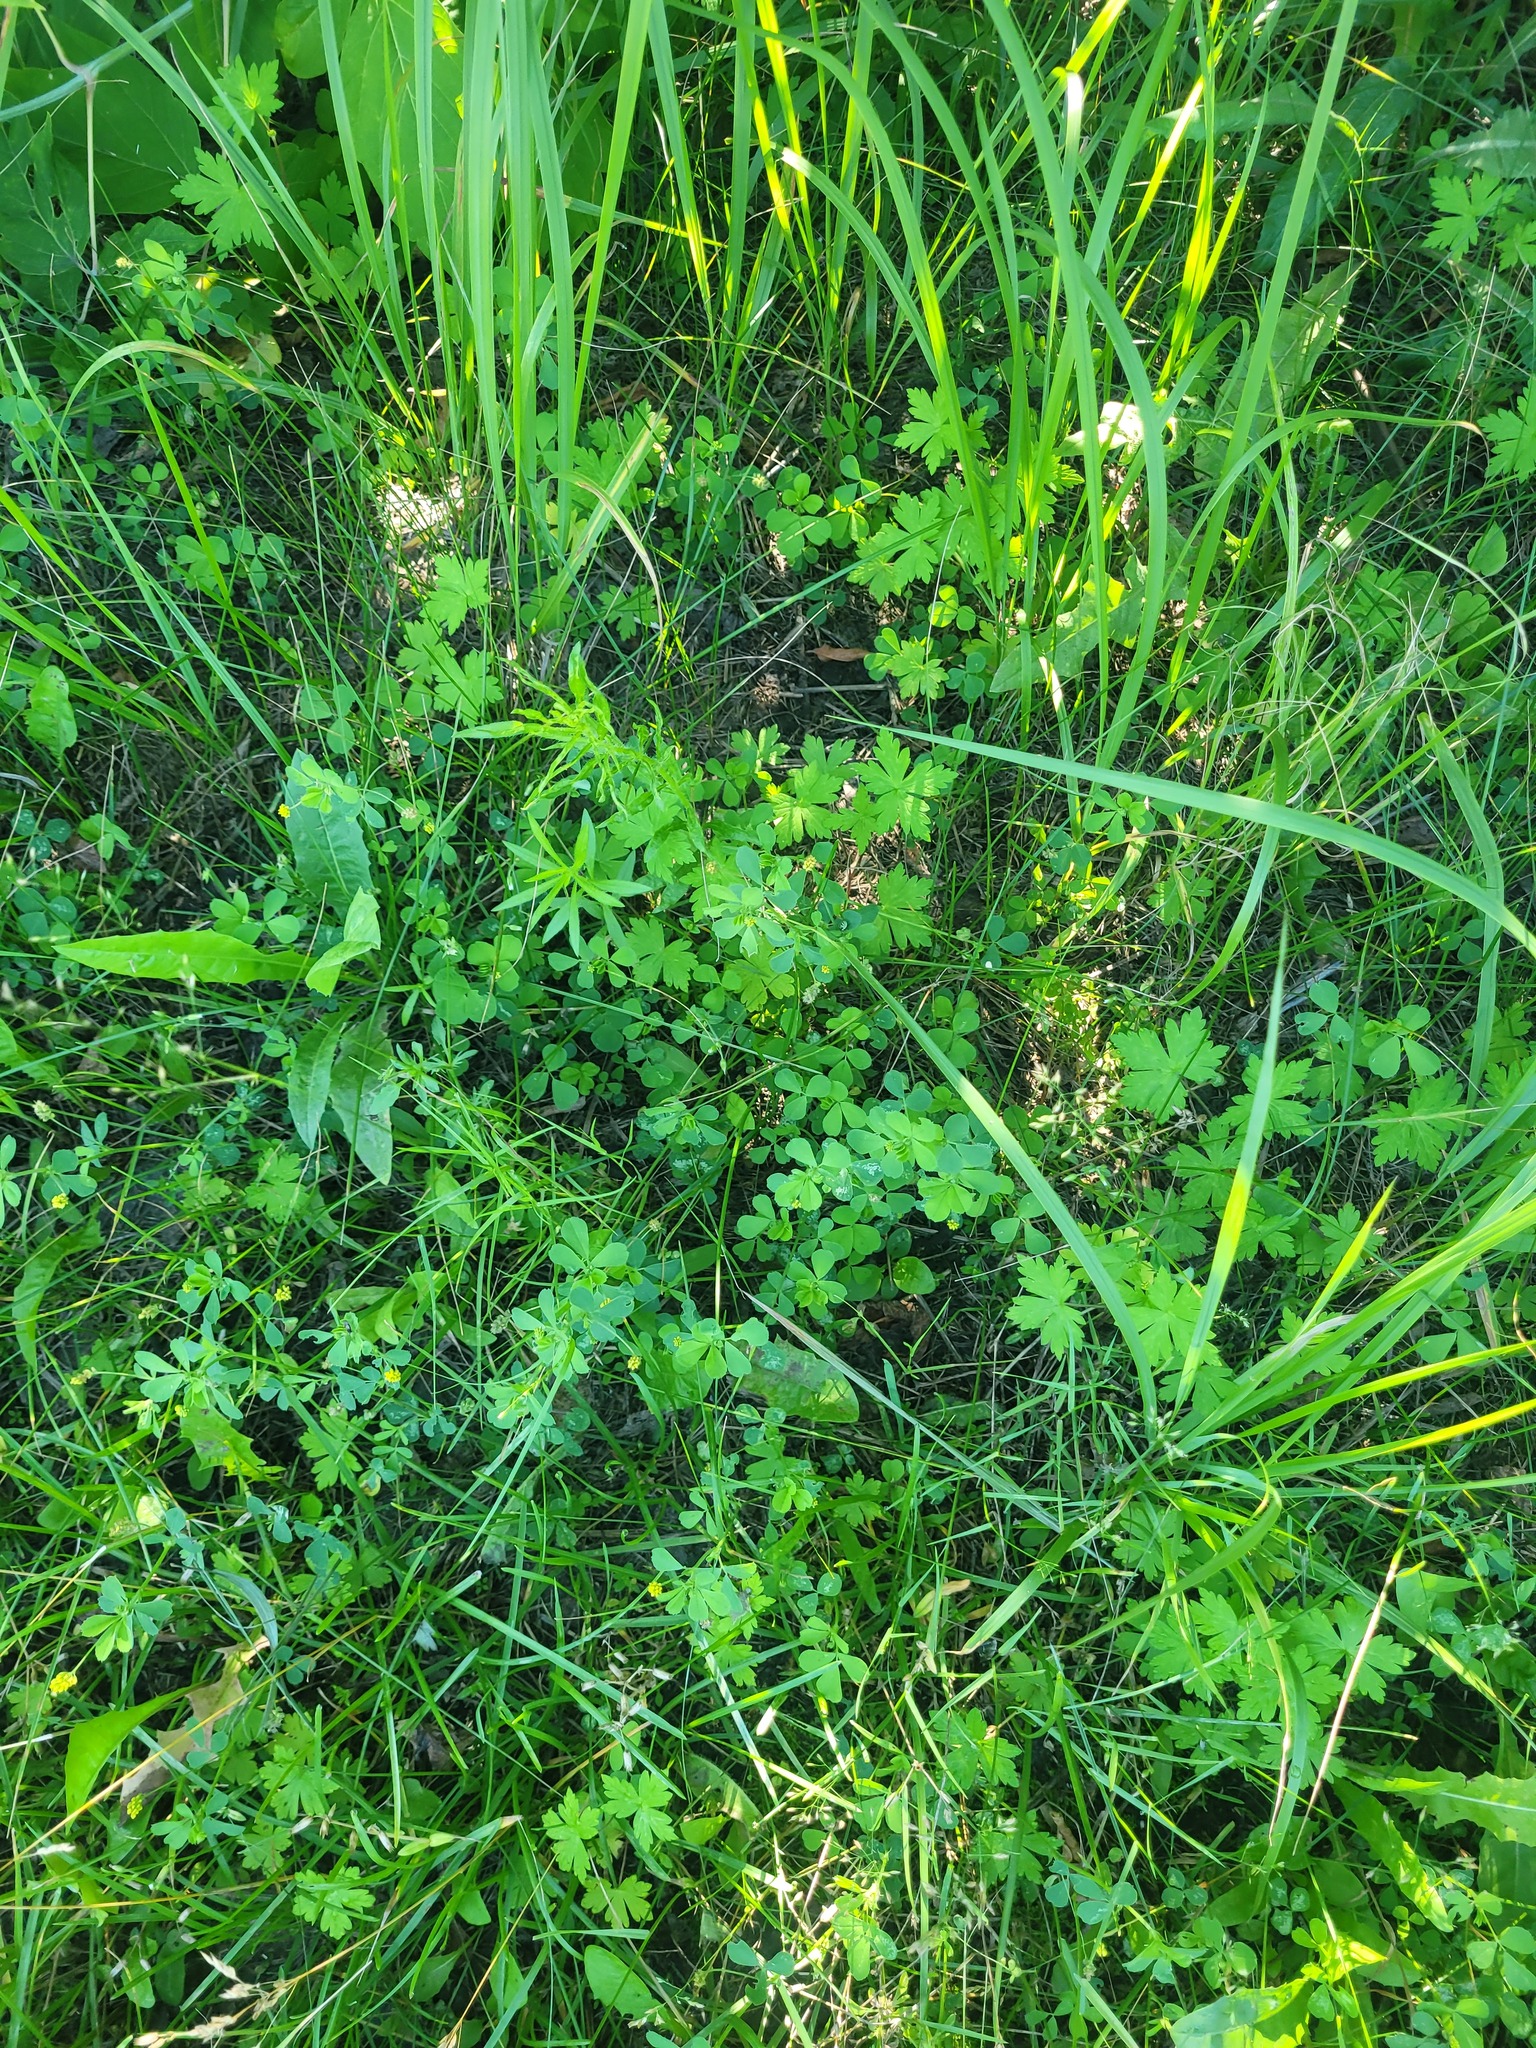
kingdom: Plantae
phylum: Tracheophyta
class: Magnoliopsida
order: Fabales
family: Fabaceae
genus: Medicago
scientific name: Medicago lupulina
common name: Black medick
